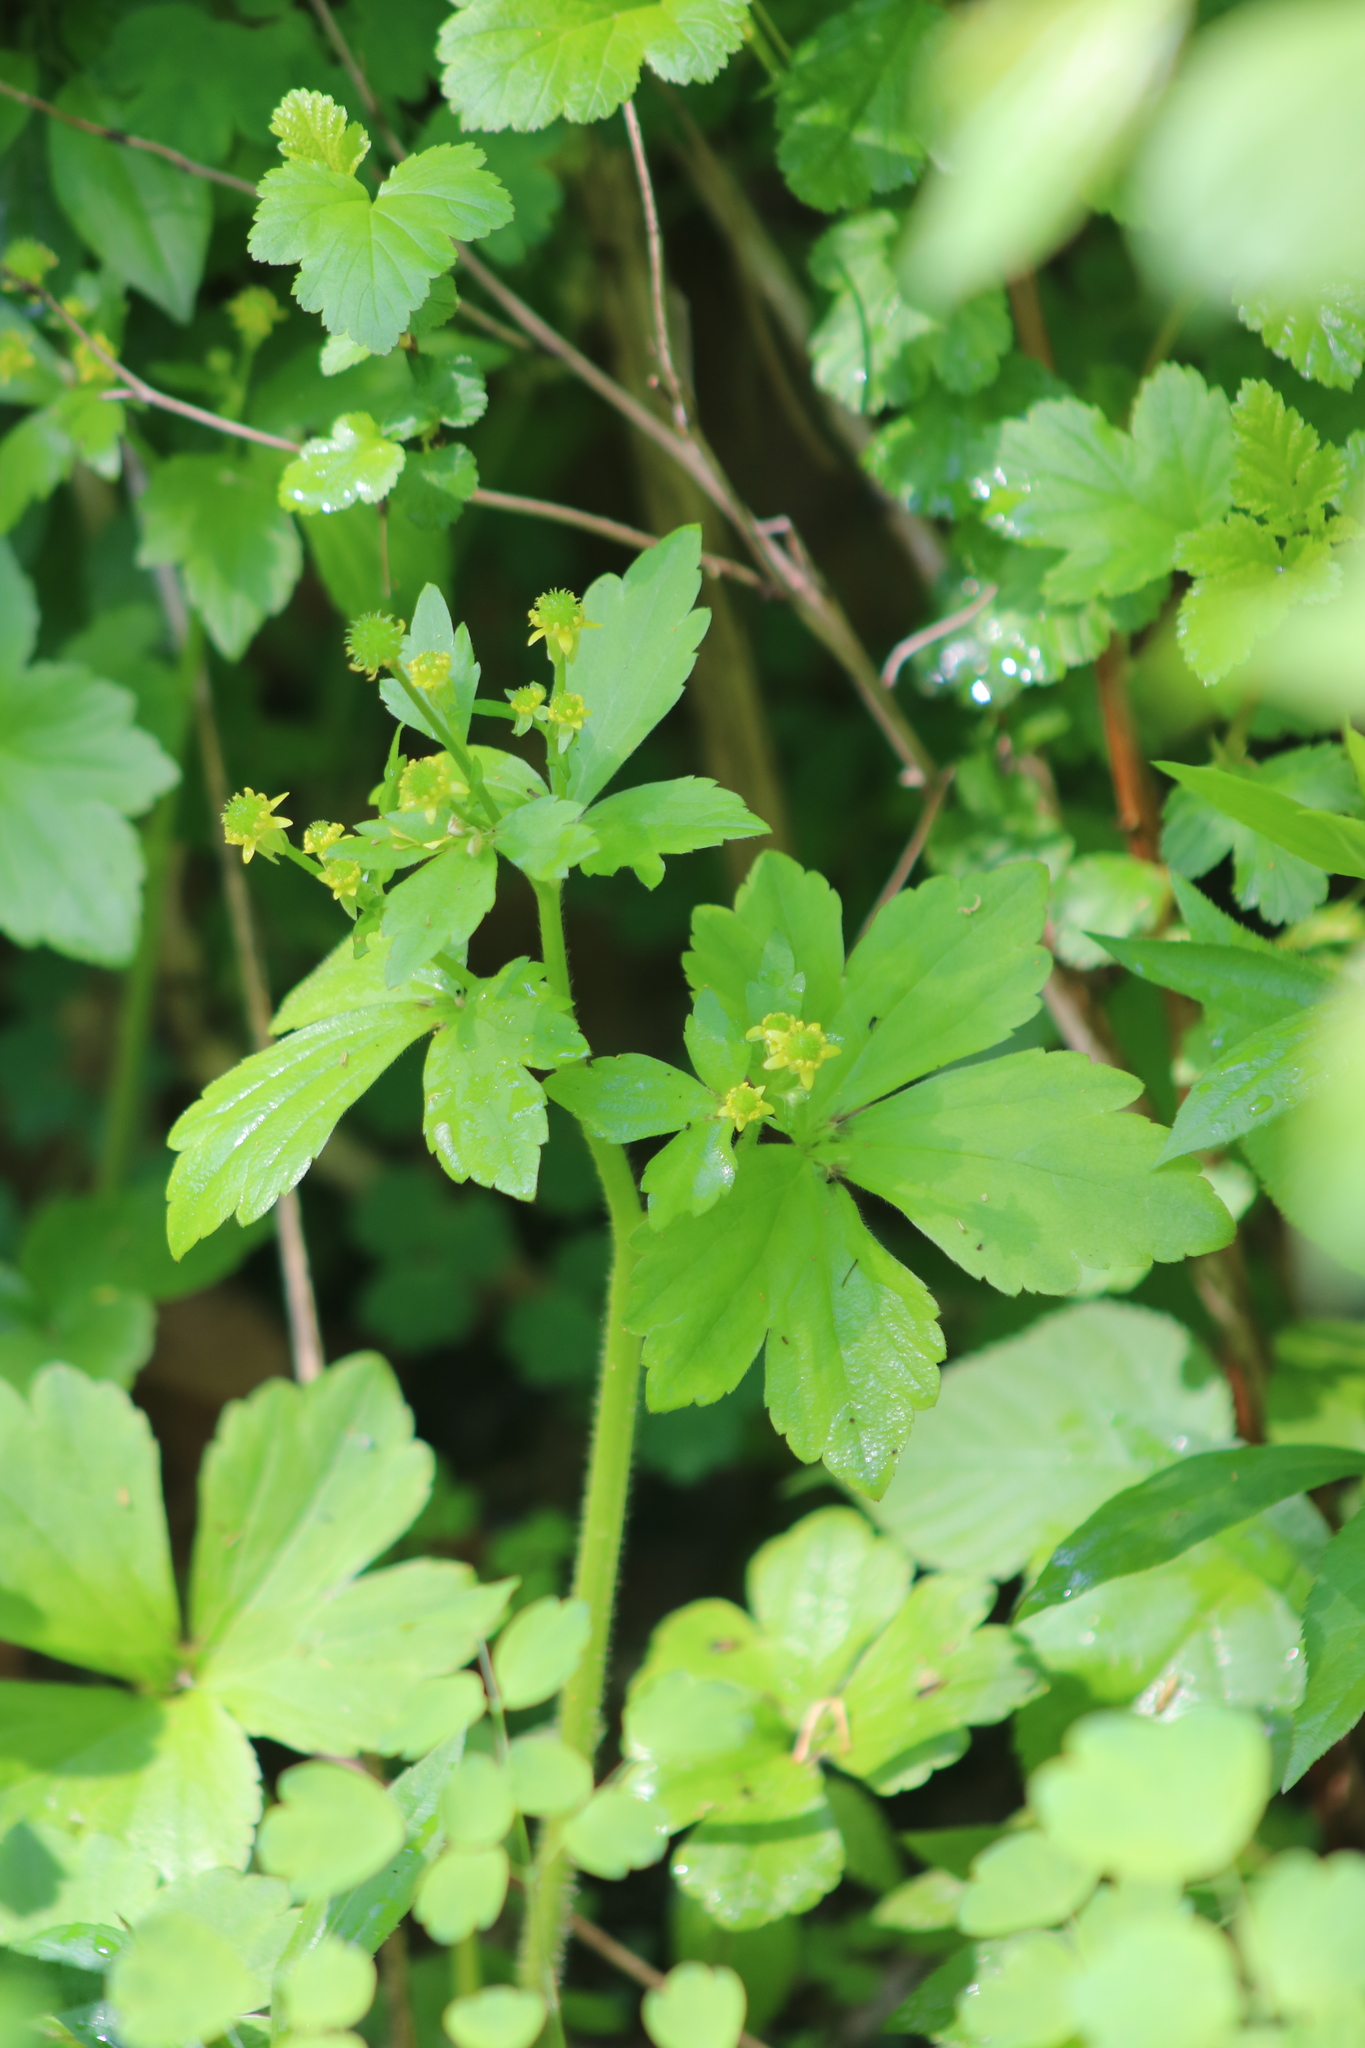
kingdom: Plantae
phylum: Tracheophyta
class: Magnoliopsida
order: Ranunculales
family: Ranunculaceae
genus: Ranunculus
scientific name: Ranunculus recurvatus
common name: Blisterwort
